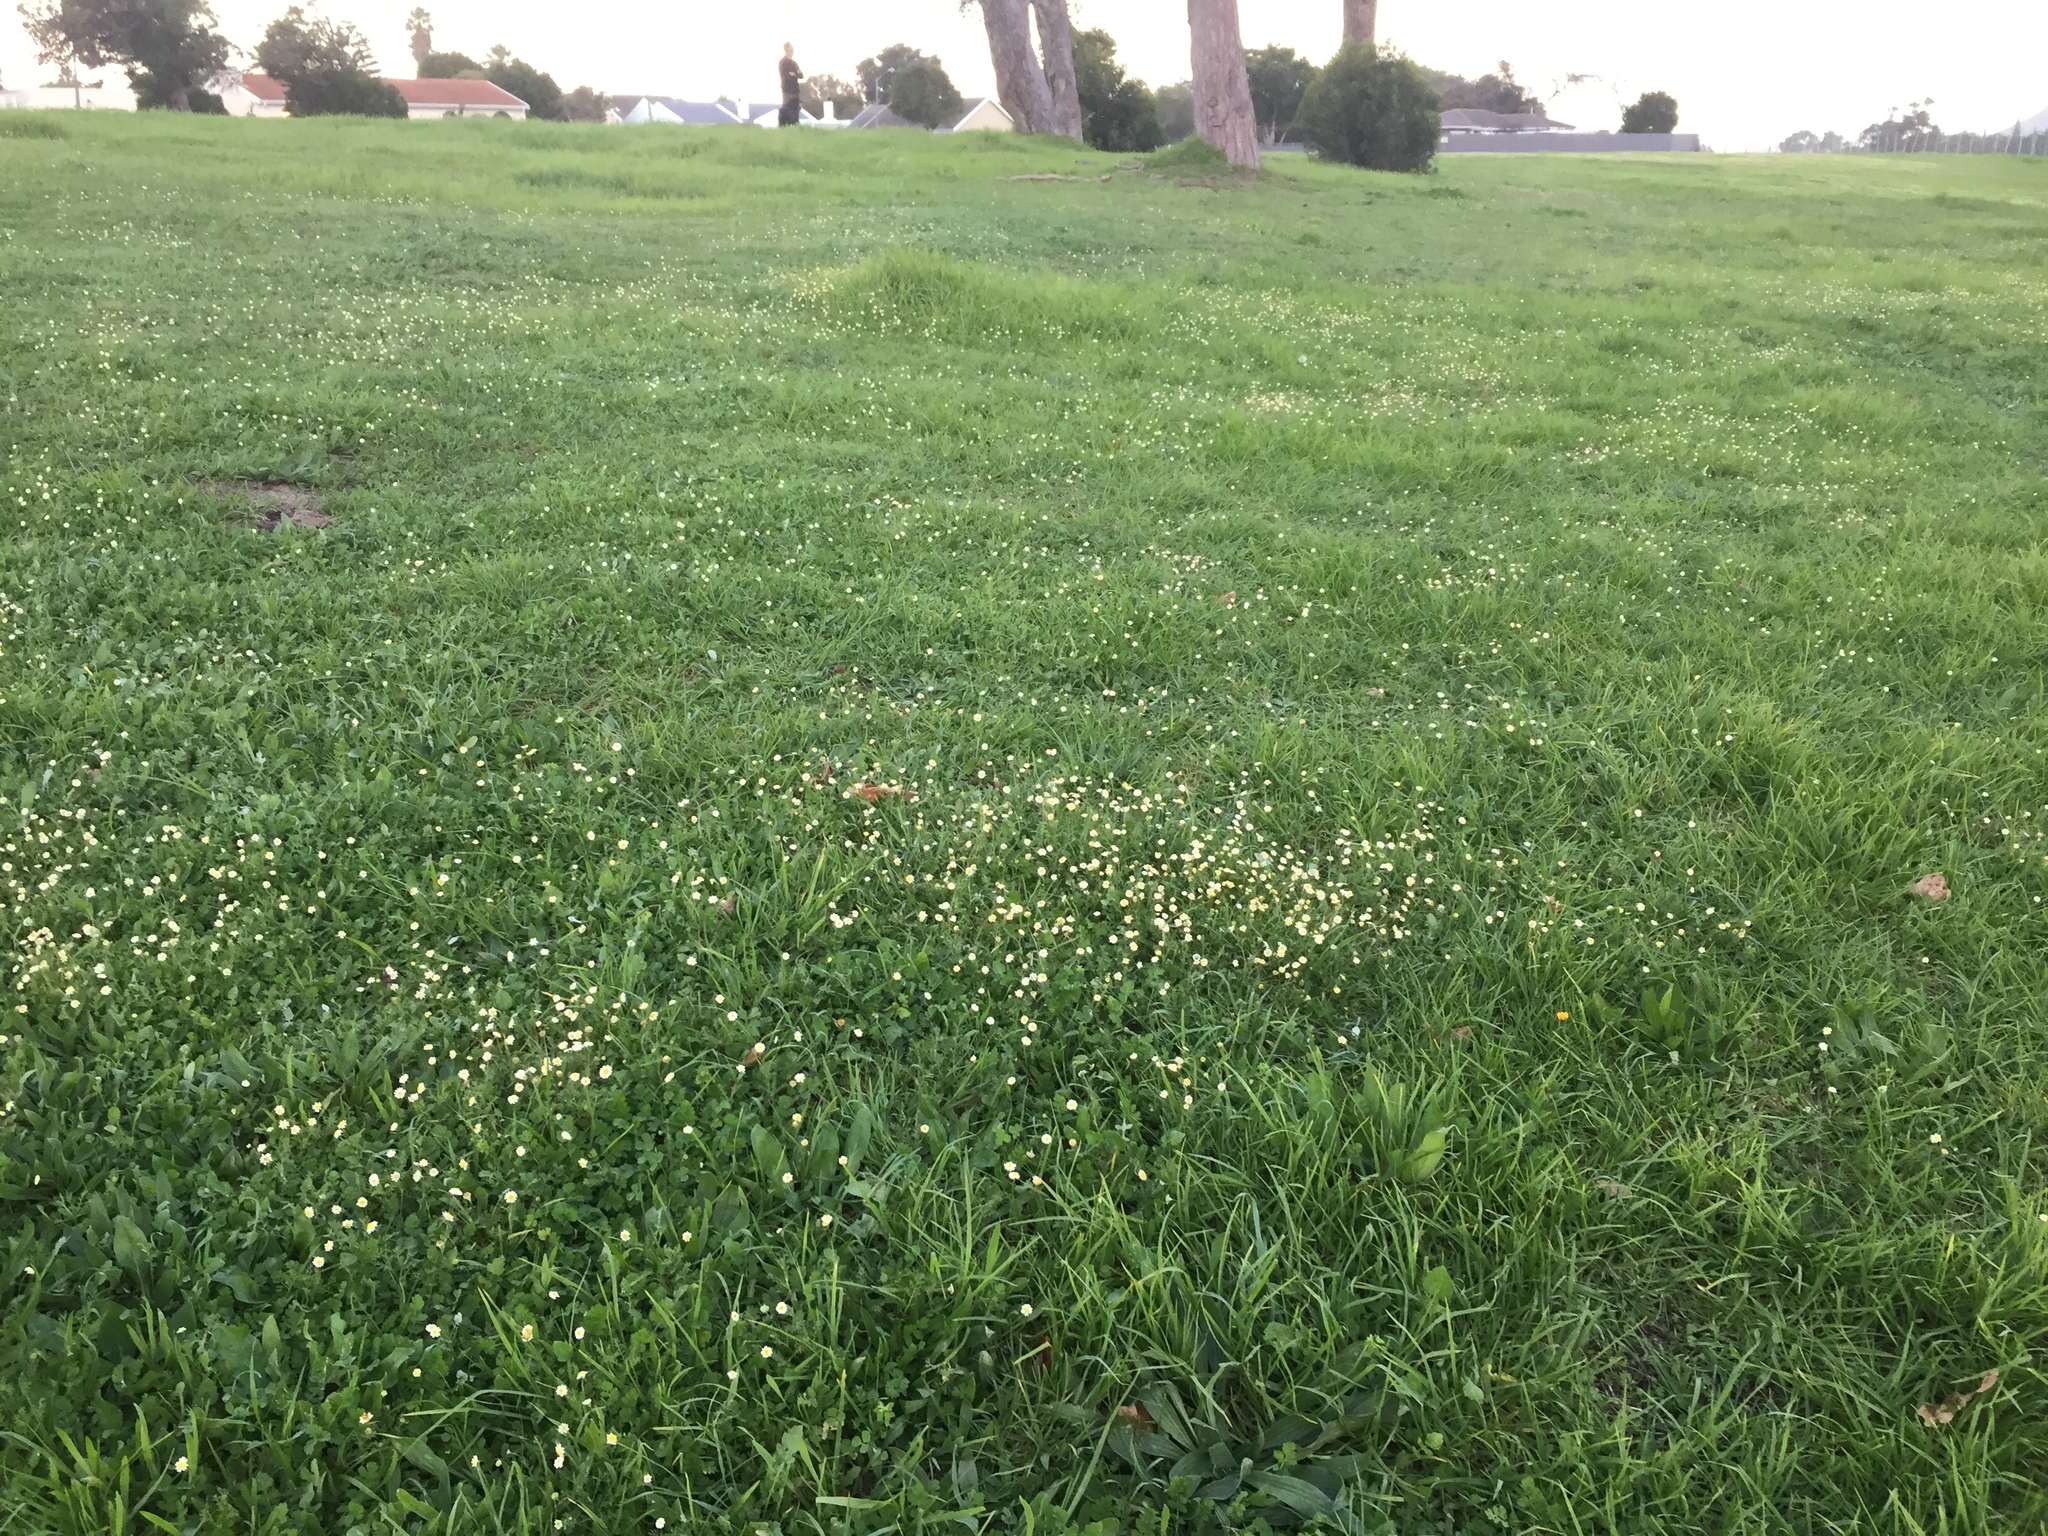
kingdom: Plantae
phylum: Tracheophyta
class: Magnoliopsida
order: Asterales
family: Asteraceae
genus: Cotula
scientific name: Cotula turbinata
